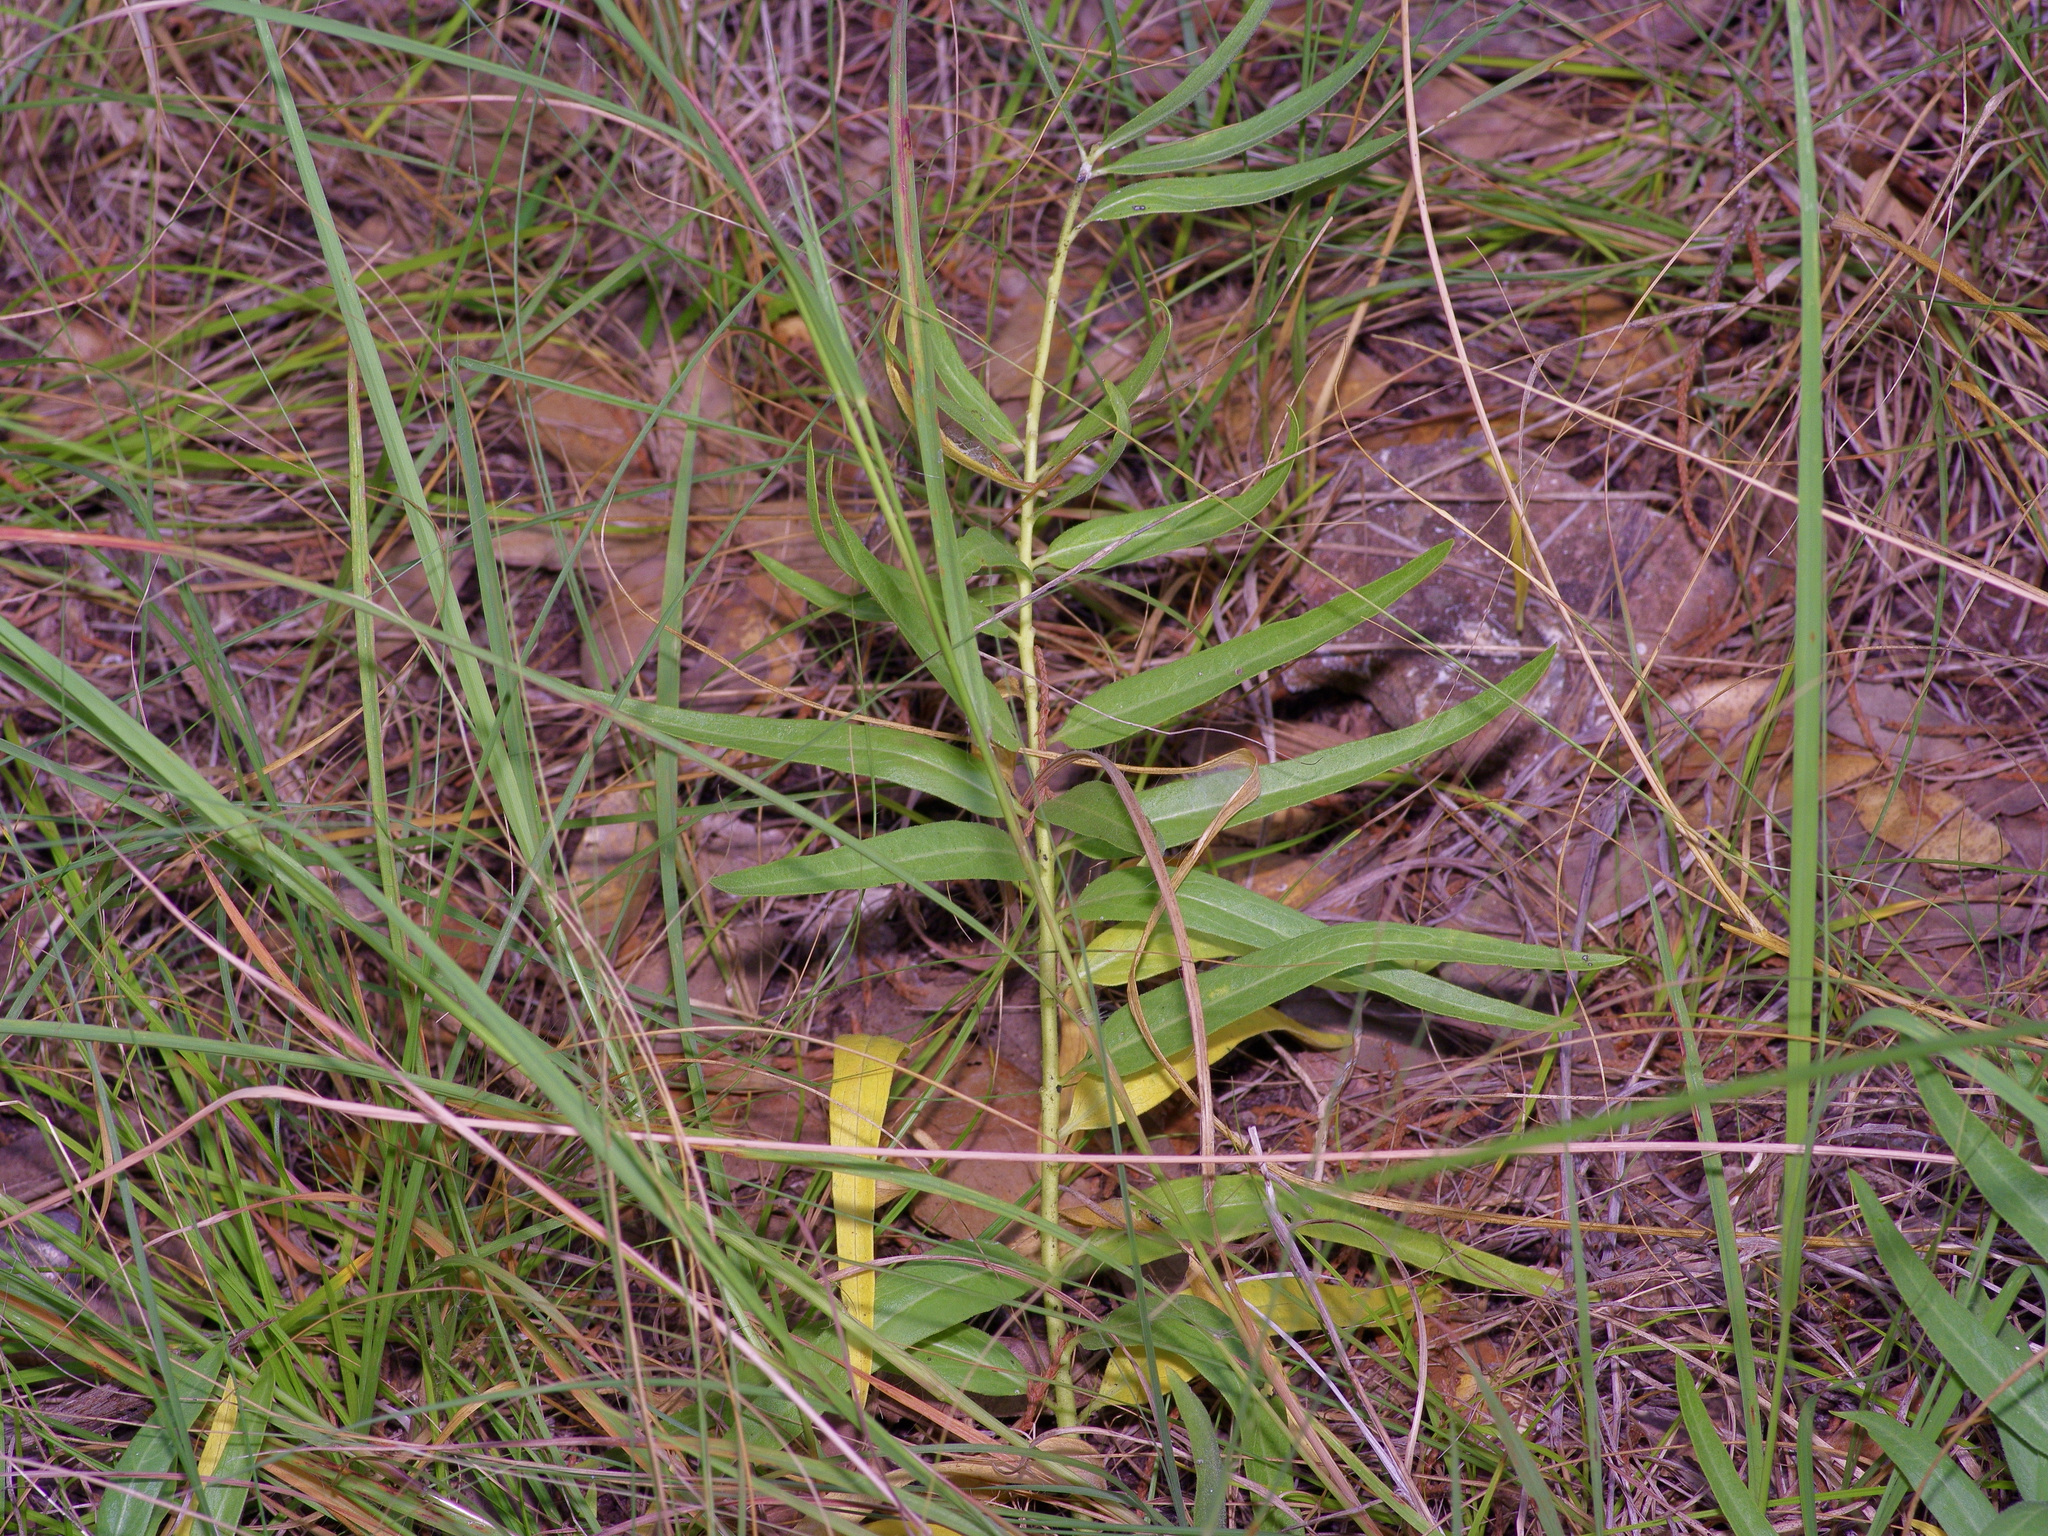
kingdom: Plantae
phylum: Tracheophyta
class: Magnoliopsida
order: Gentianales
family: Apocynaceae
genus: Asclepias
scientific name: Asclepias asperula
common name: Antelope horns
